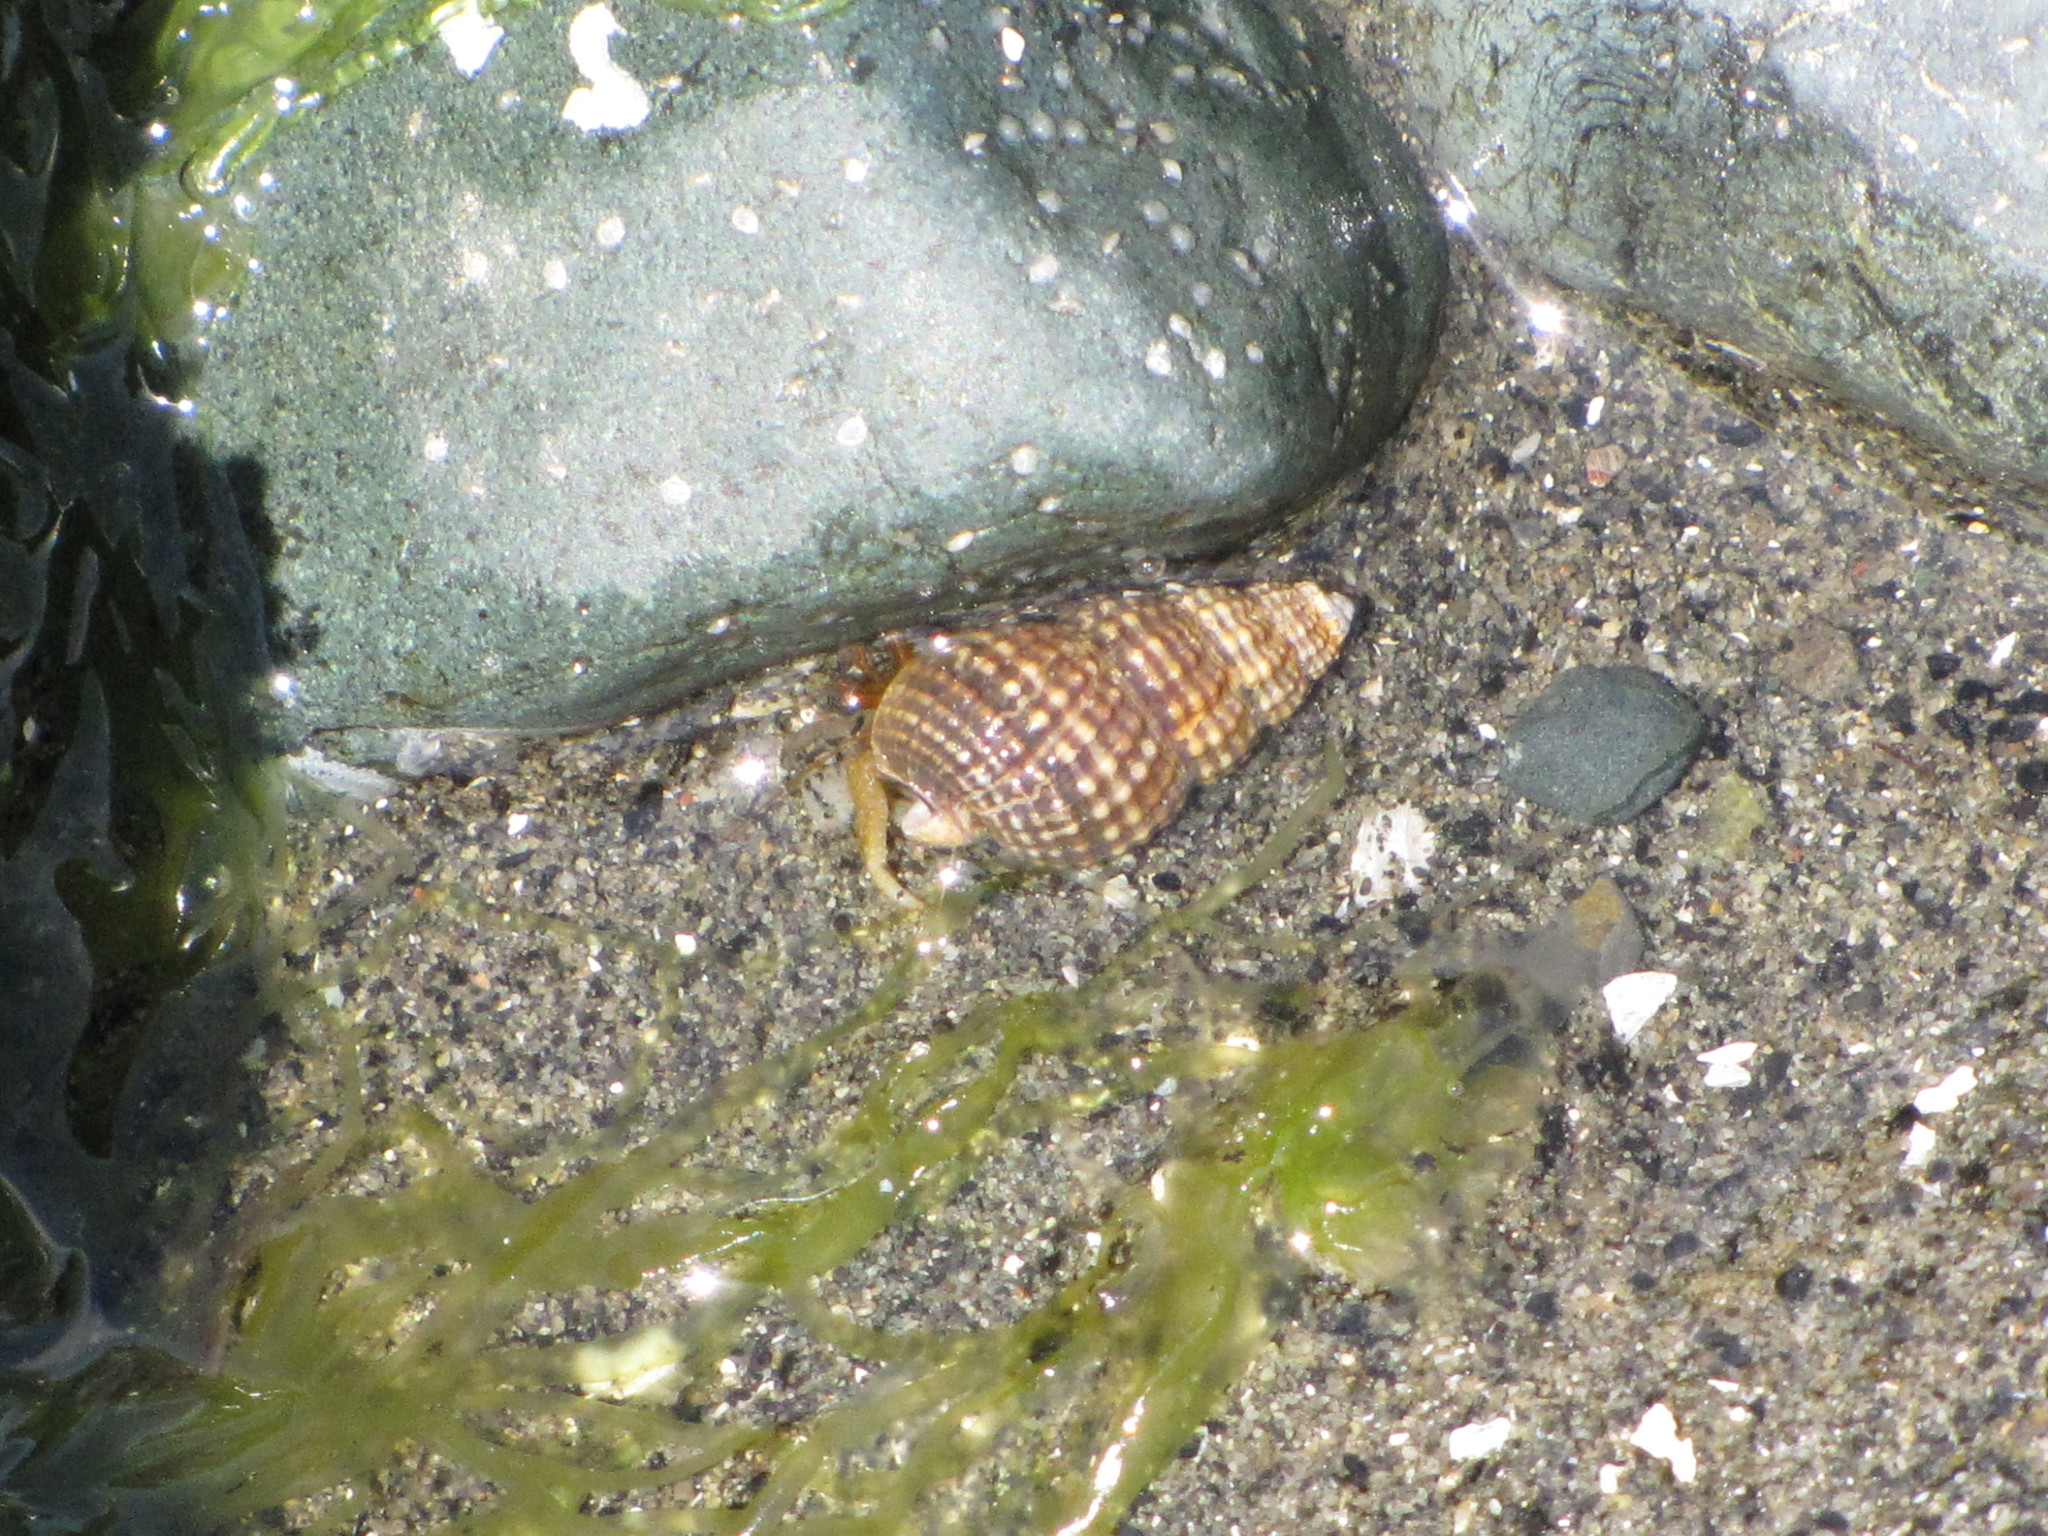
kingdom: Animalia
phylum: Arthropoda
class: Malacostraca
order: Decapoda
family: Paguridae
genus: Pagurus
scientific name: Pagurus granosimanus
